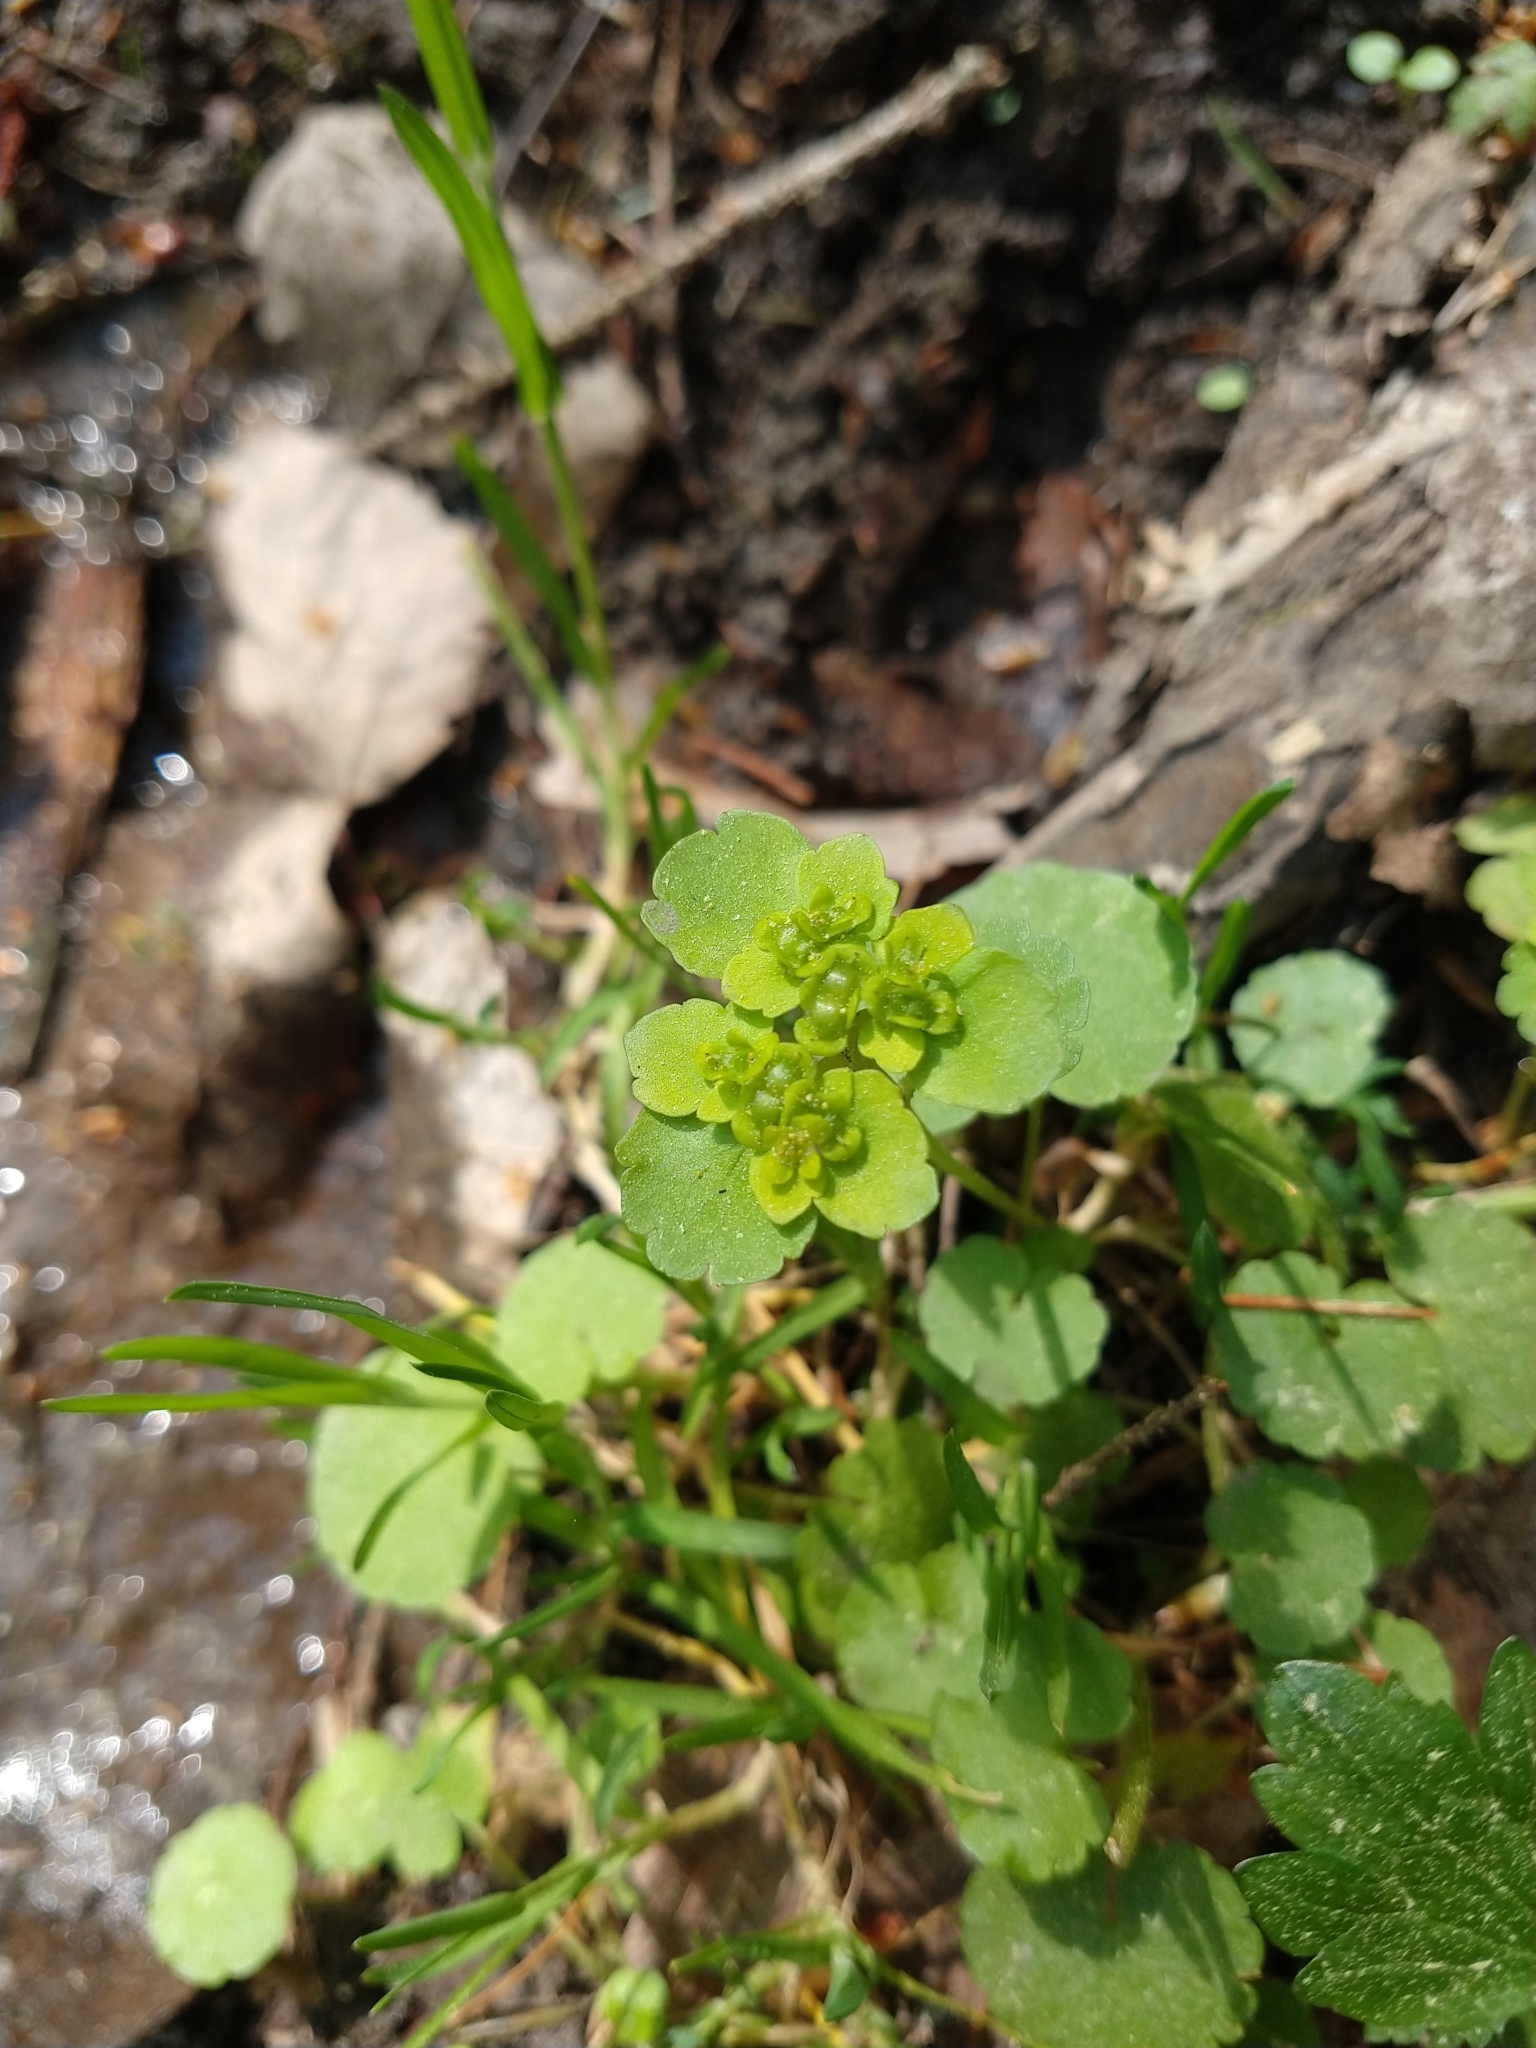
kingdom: Plantae
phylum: Tracheophyta
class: Magnoliopsida
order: Saxifragales
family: Saxifragaceae
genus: Chrysosplenium
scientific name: Chrysosplenium alternifolium
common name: Alternate-leaved golden-saxifrage
